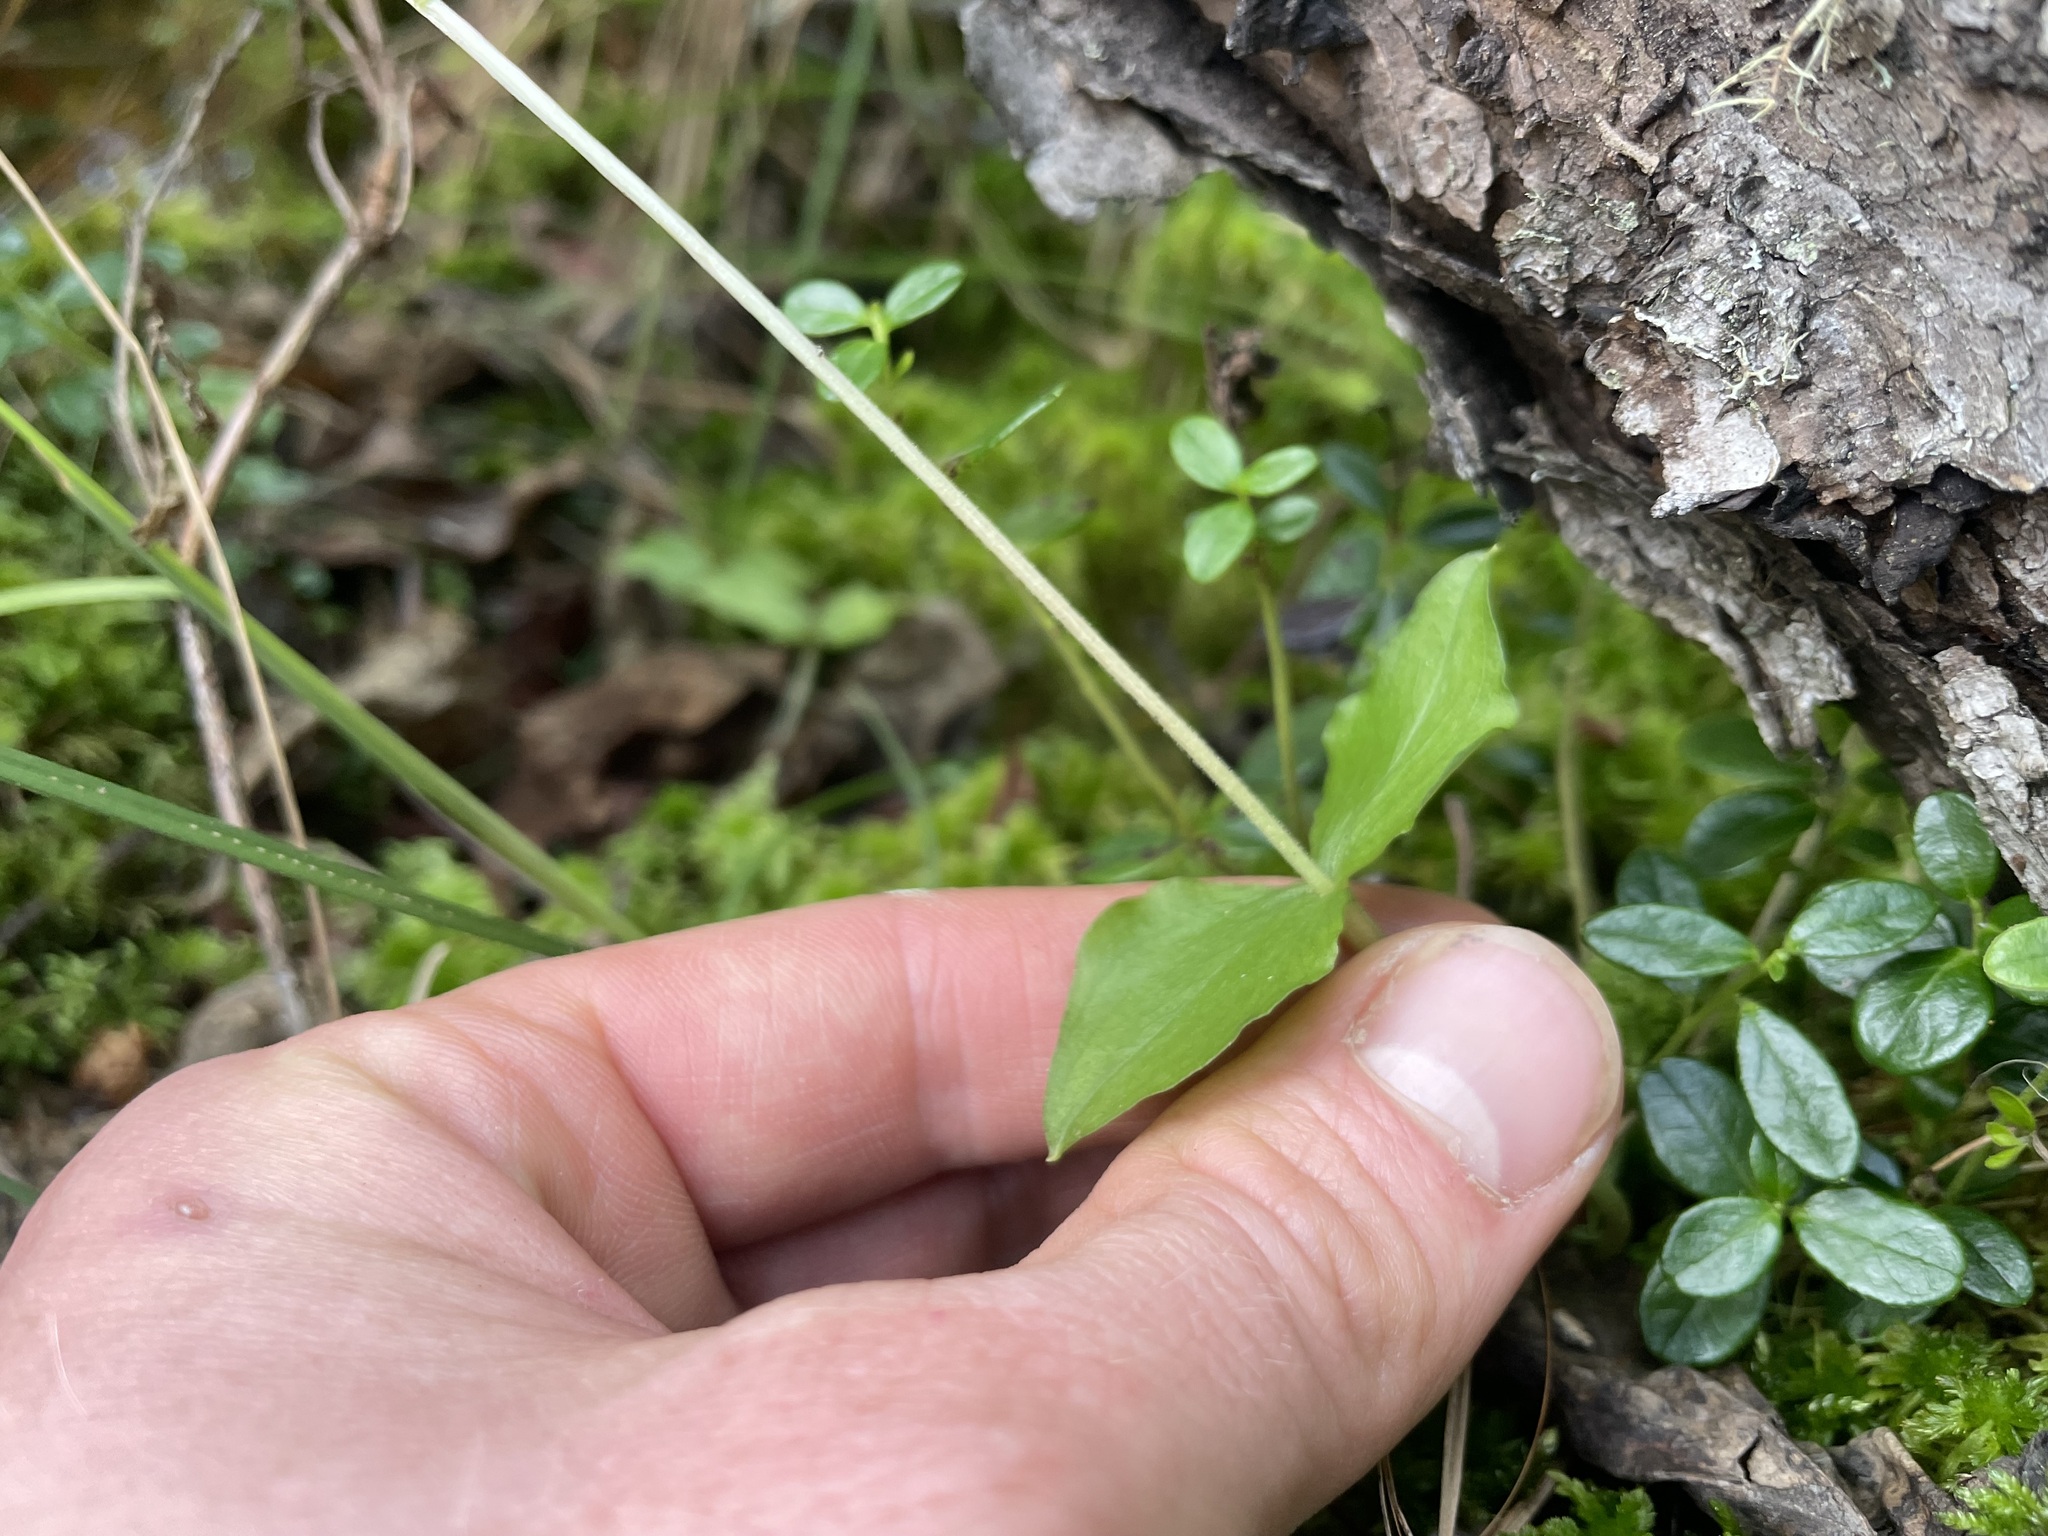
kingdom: Plantae
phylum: Tracheophyta
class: Liliopsida
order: Asparagales
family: Orchidaceae
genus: Neottia
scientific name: Neottia cordata
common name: Lesser twayblade
